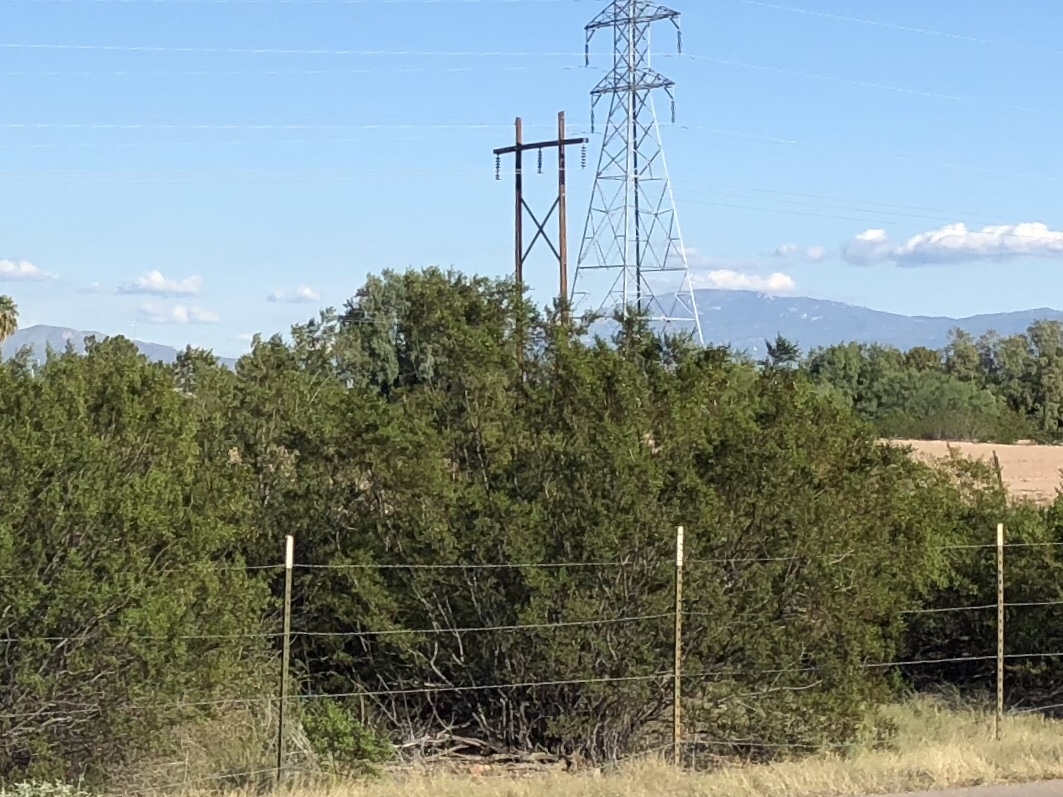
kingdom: Plantae
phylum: Tracheophyta
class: Magnoliopsida
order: Zygophyllales
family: Zygophyllaceae
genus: Larrea
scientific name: Larrea tridentata
